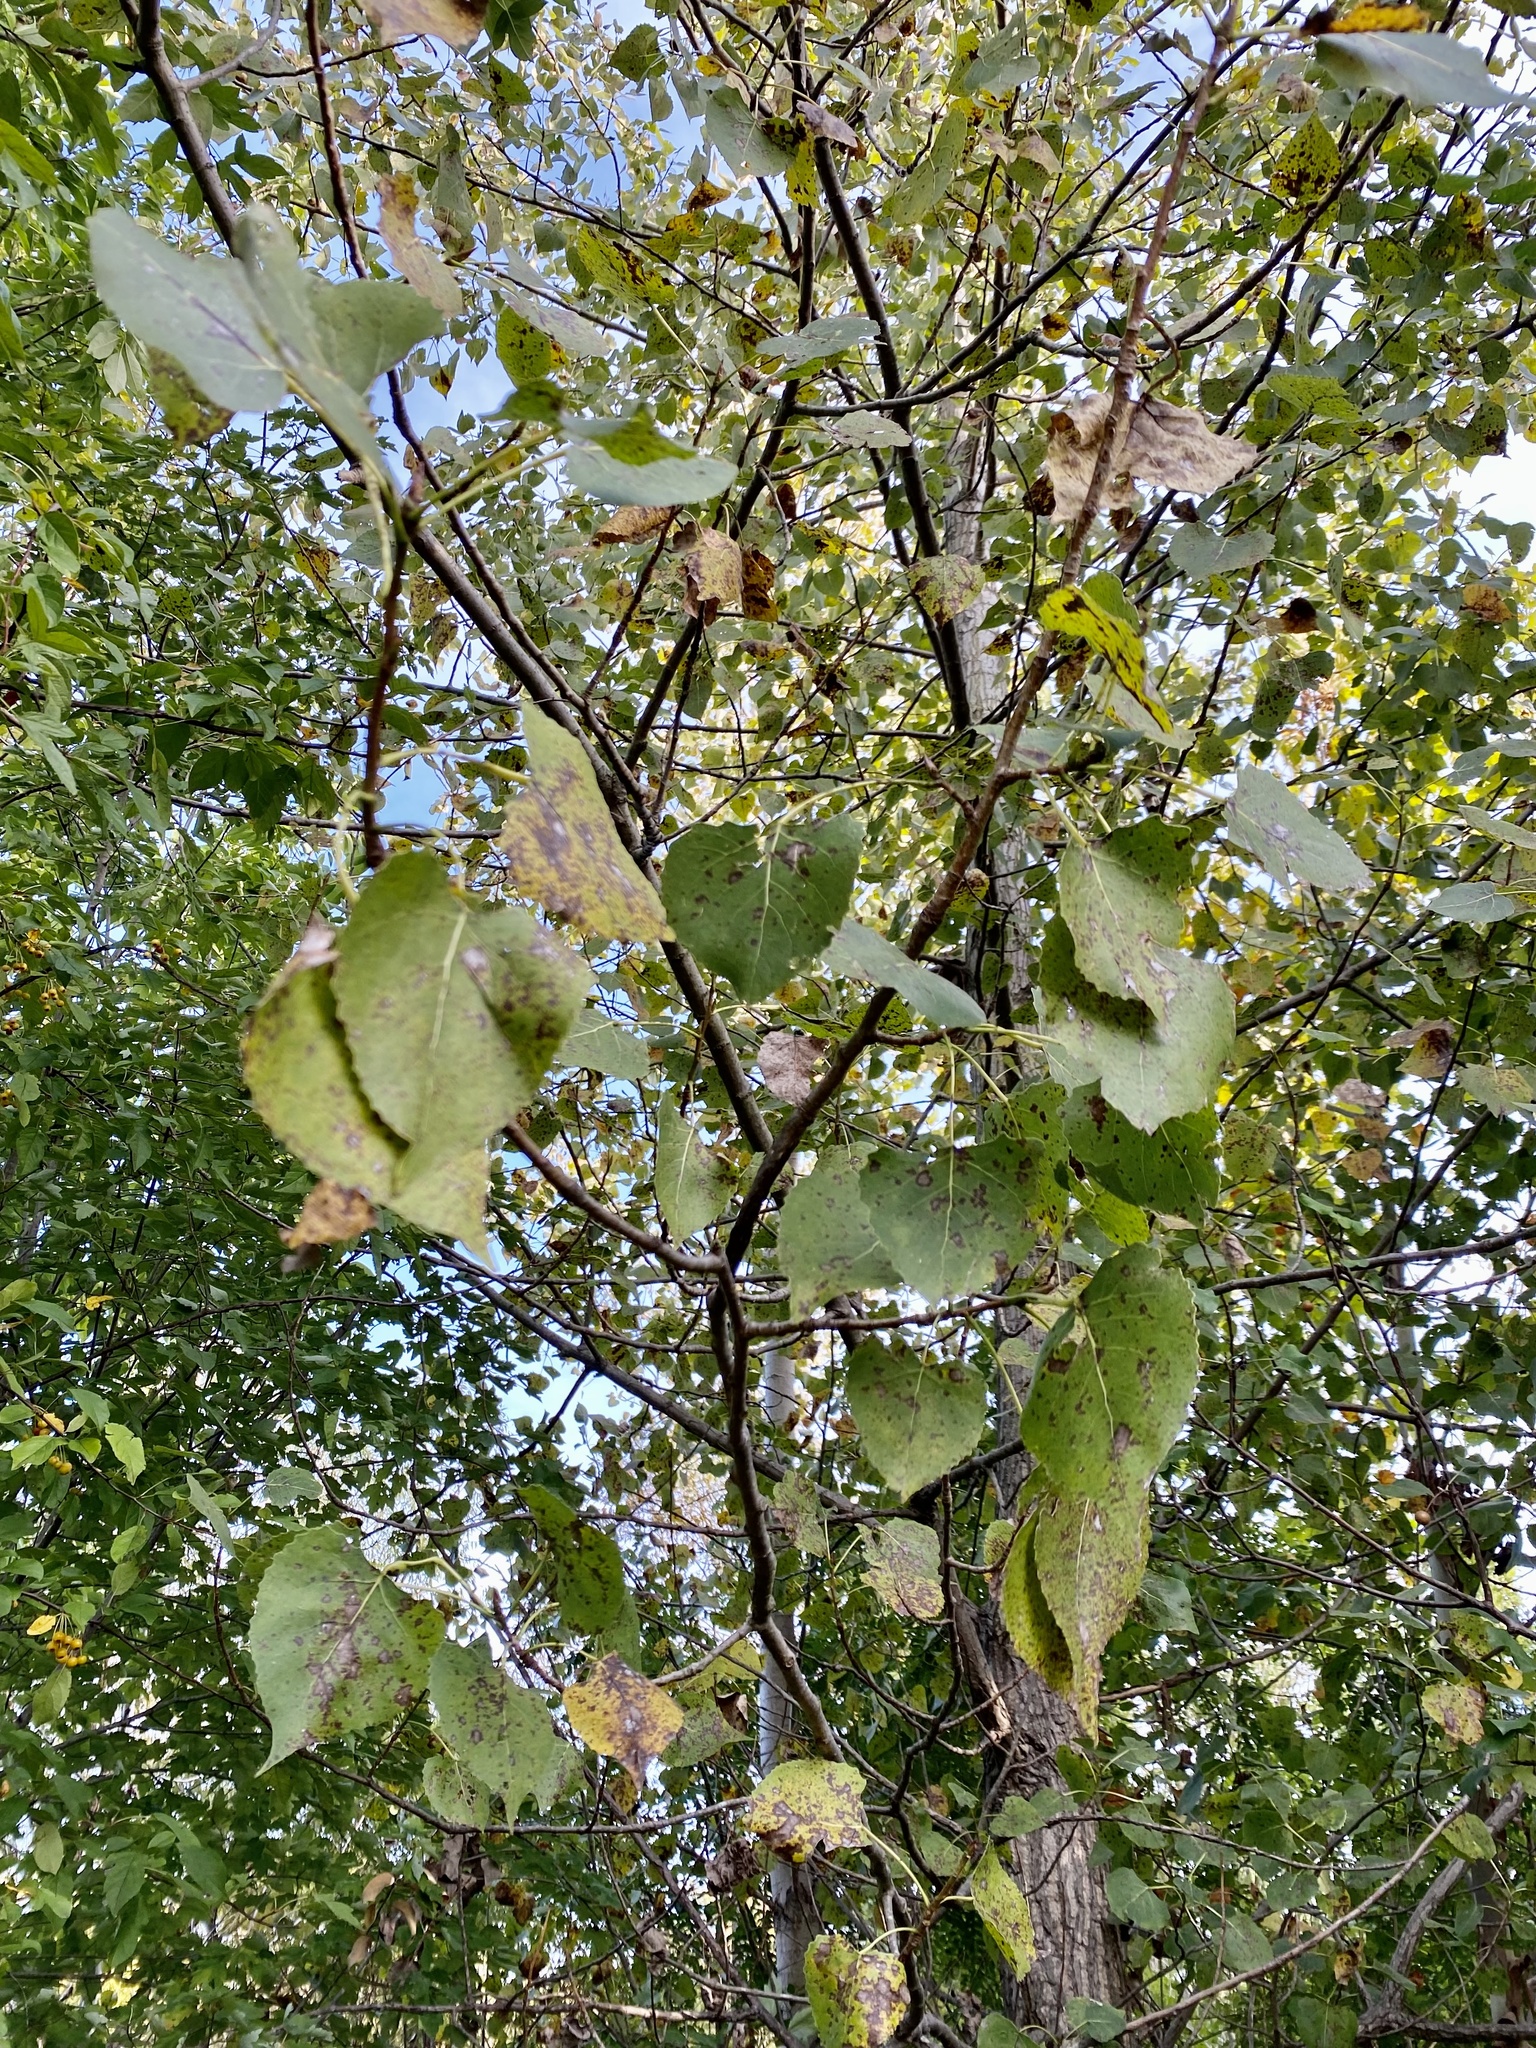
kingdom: Plantae
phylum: Tracheophyta
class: Magnoliopsida
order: Malpighiales
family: Salicaceae
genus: Populus
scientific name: Populus deltoides
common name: Eastern cottonwood
